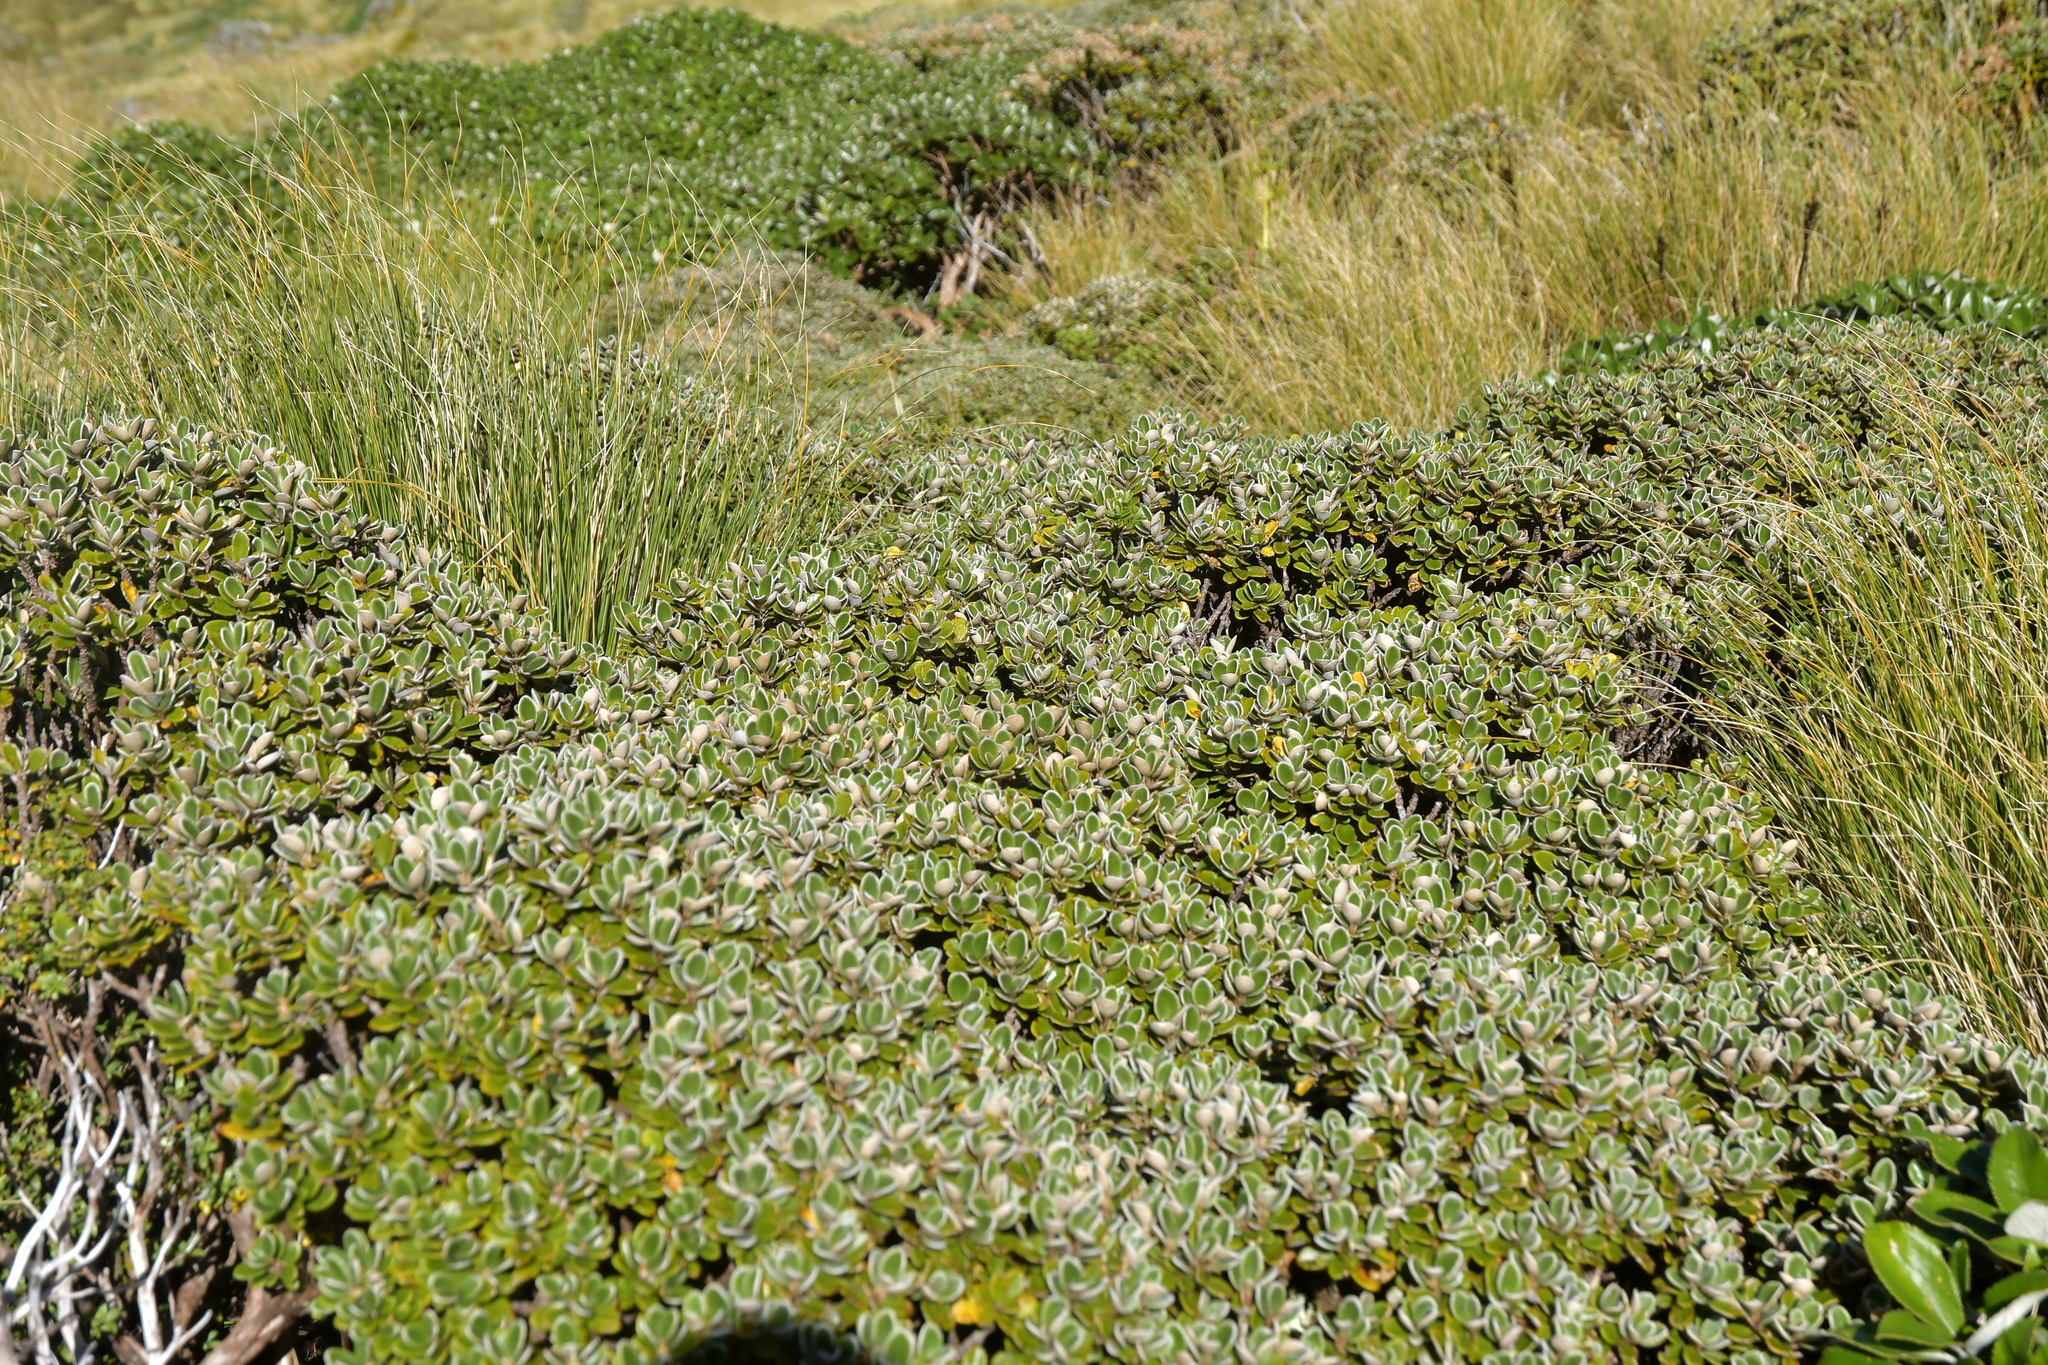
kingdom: Plantae
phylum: Tracheophyta
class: Magnoliopsida
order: Asterales
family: Asteraceae
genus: Brachyglottis
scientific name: Brachyglottis bidwillii
